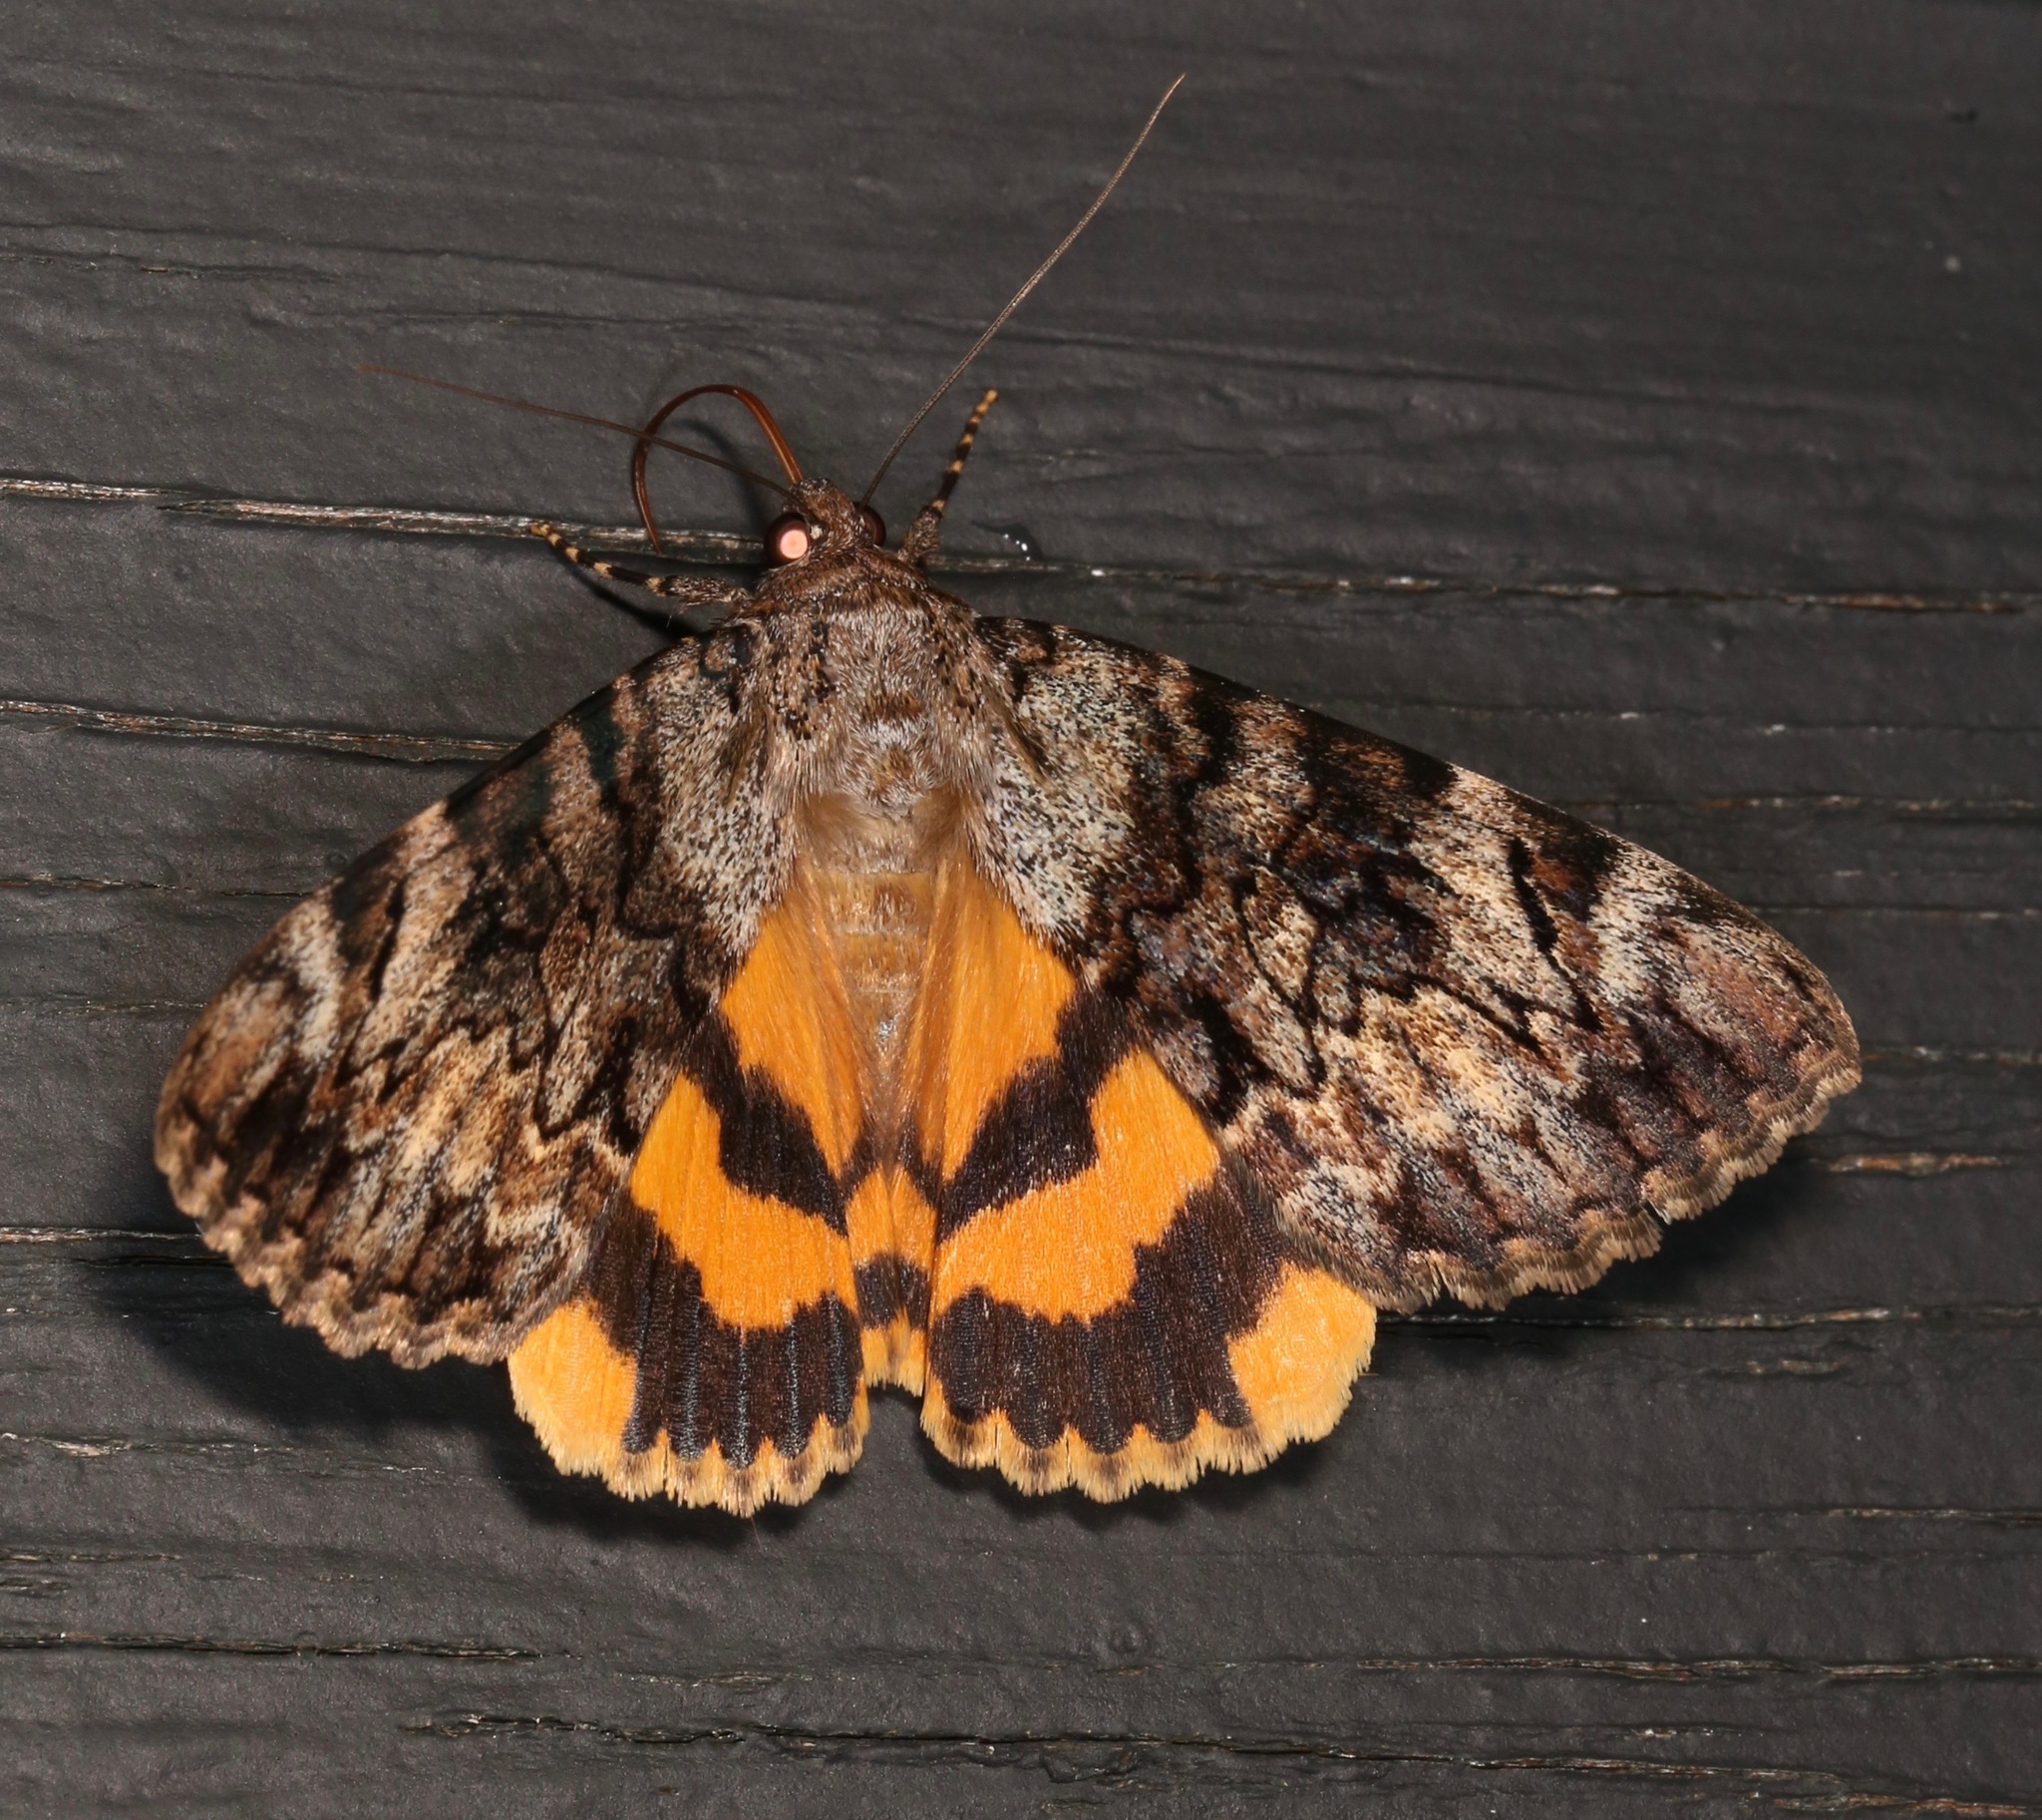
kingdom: Animalia
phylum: Arthropoda
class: Insecta
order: Lepidoptera
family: Erebidae
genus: Catocala
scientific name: Catocala desdemona
